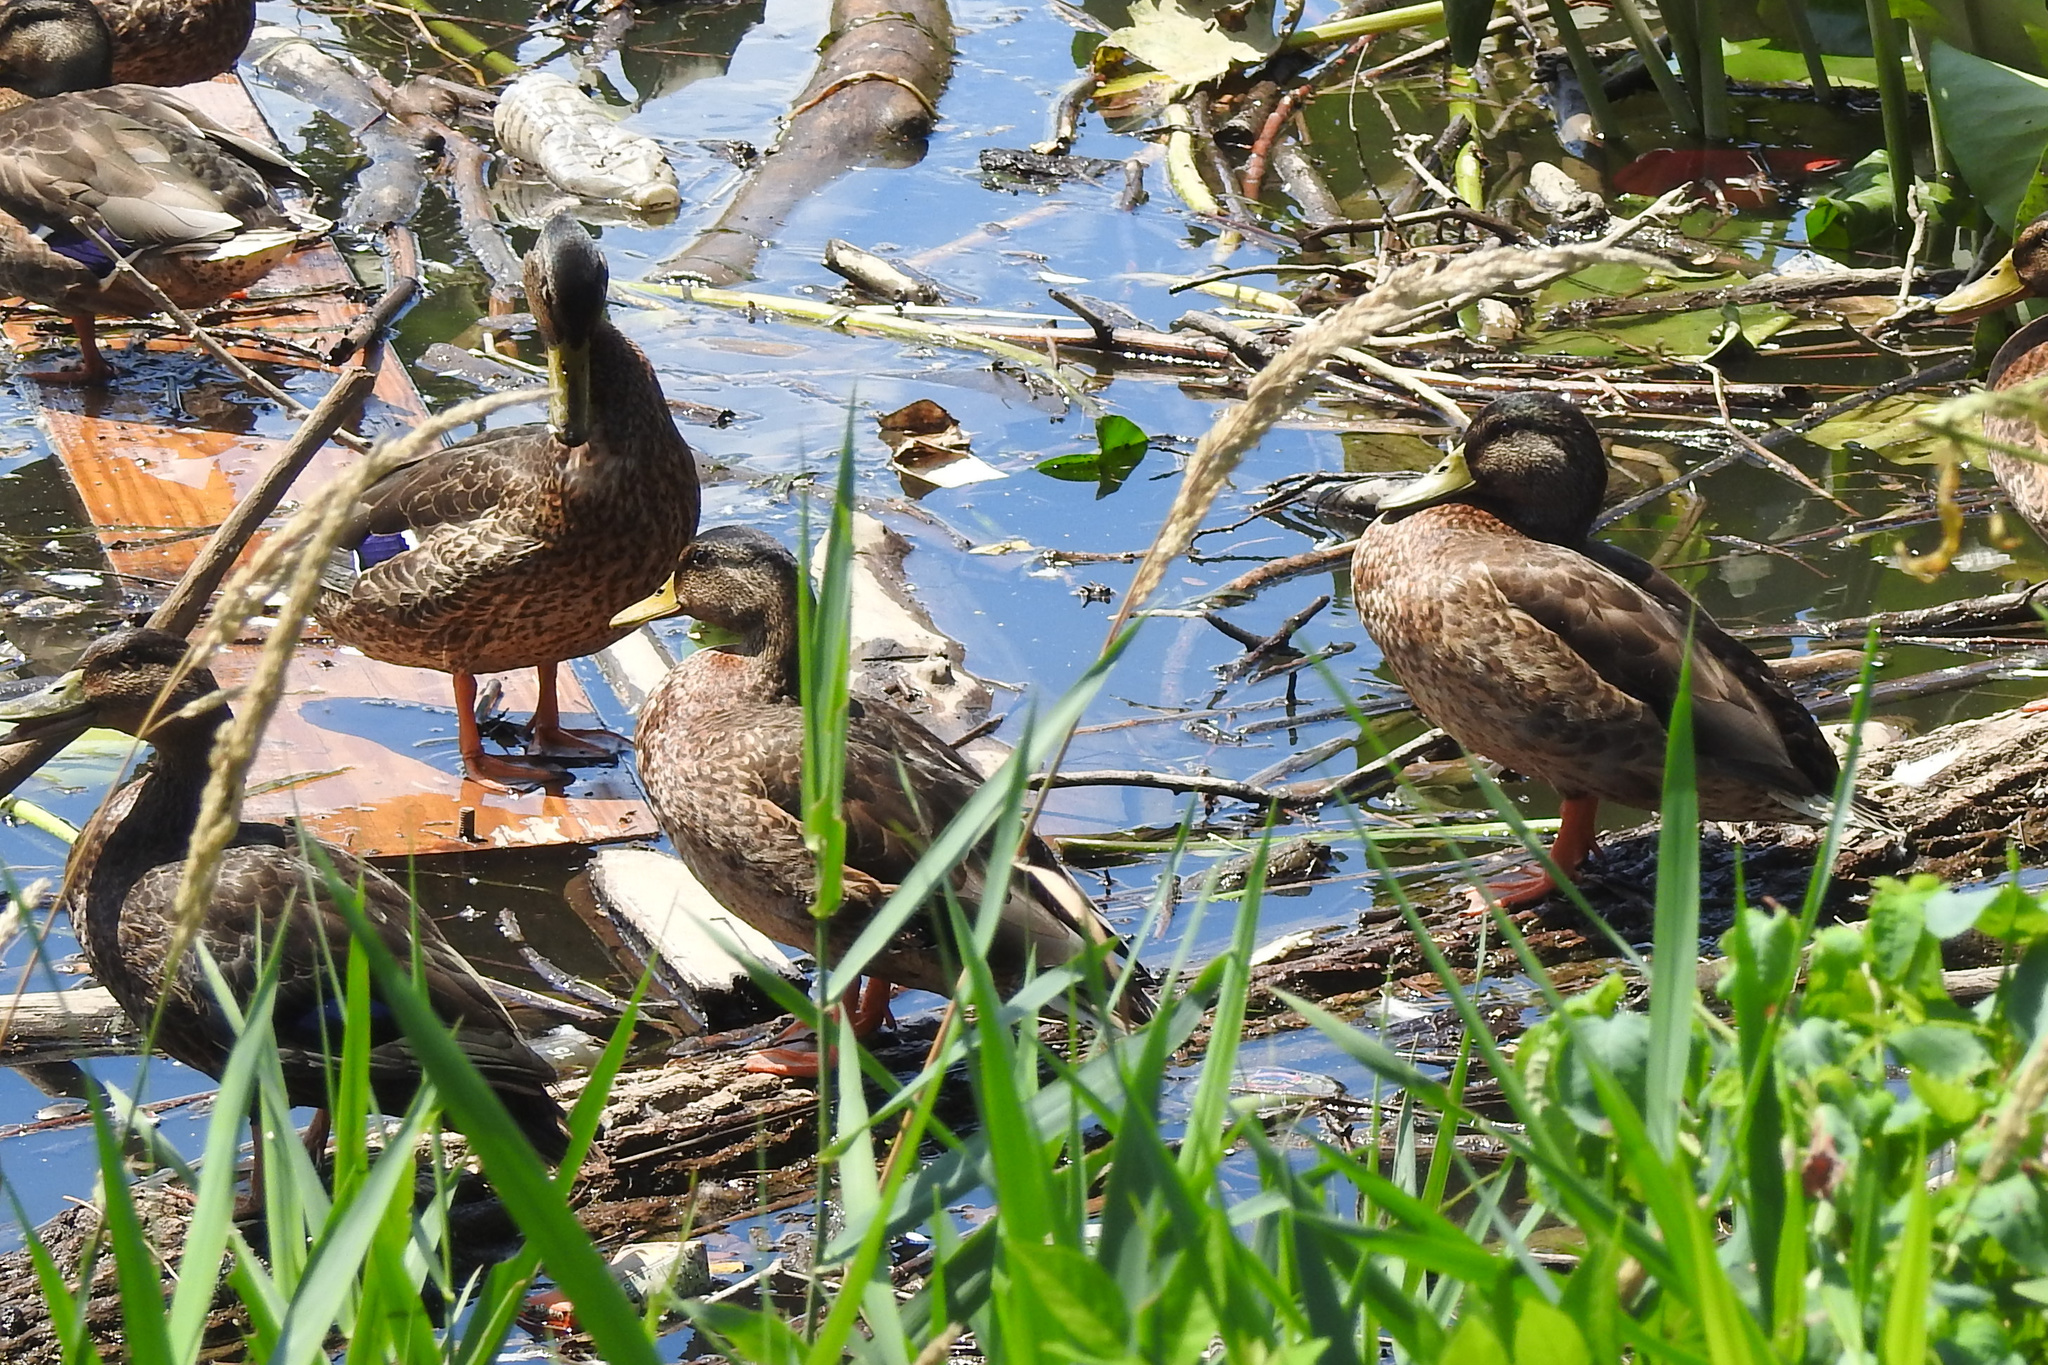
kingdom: Animalia
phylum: Chordata
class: Aves
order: Anseriformes
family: Anatidae
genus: Anas
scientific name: Anas platyrhynchos
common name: Mallard
